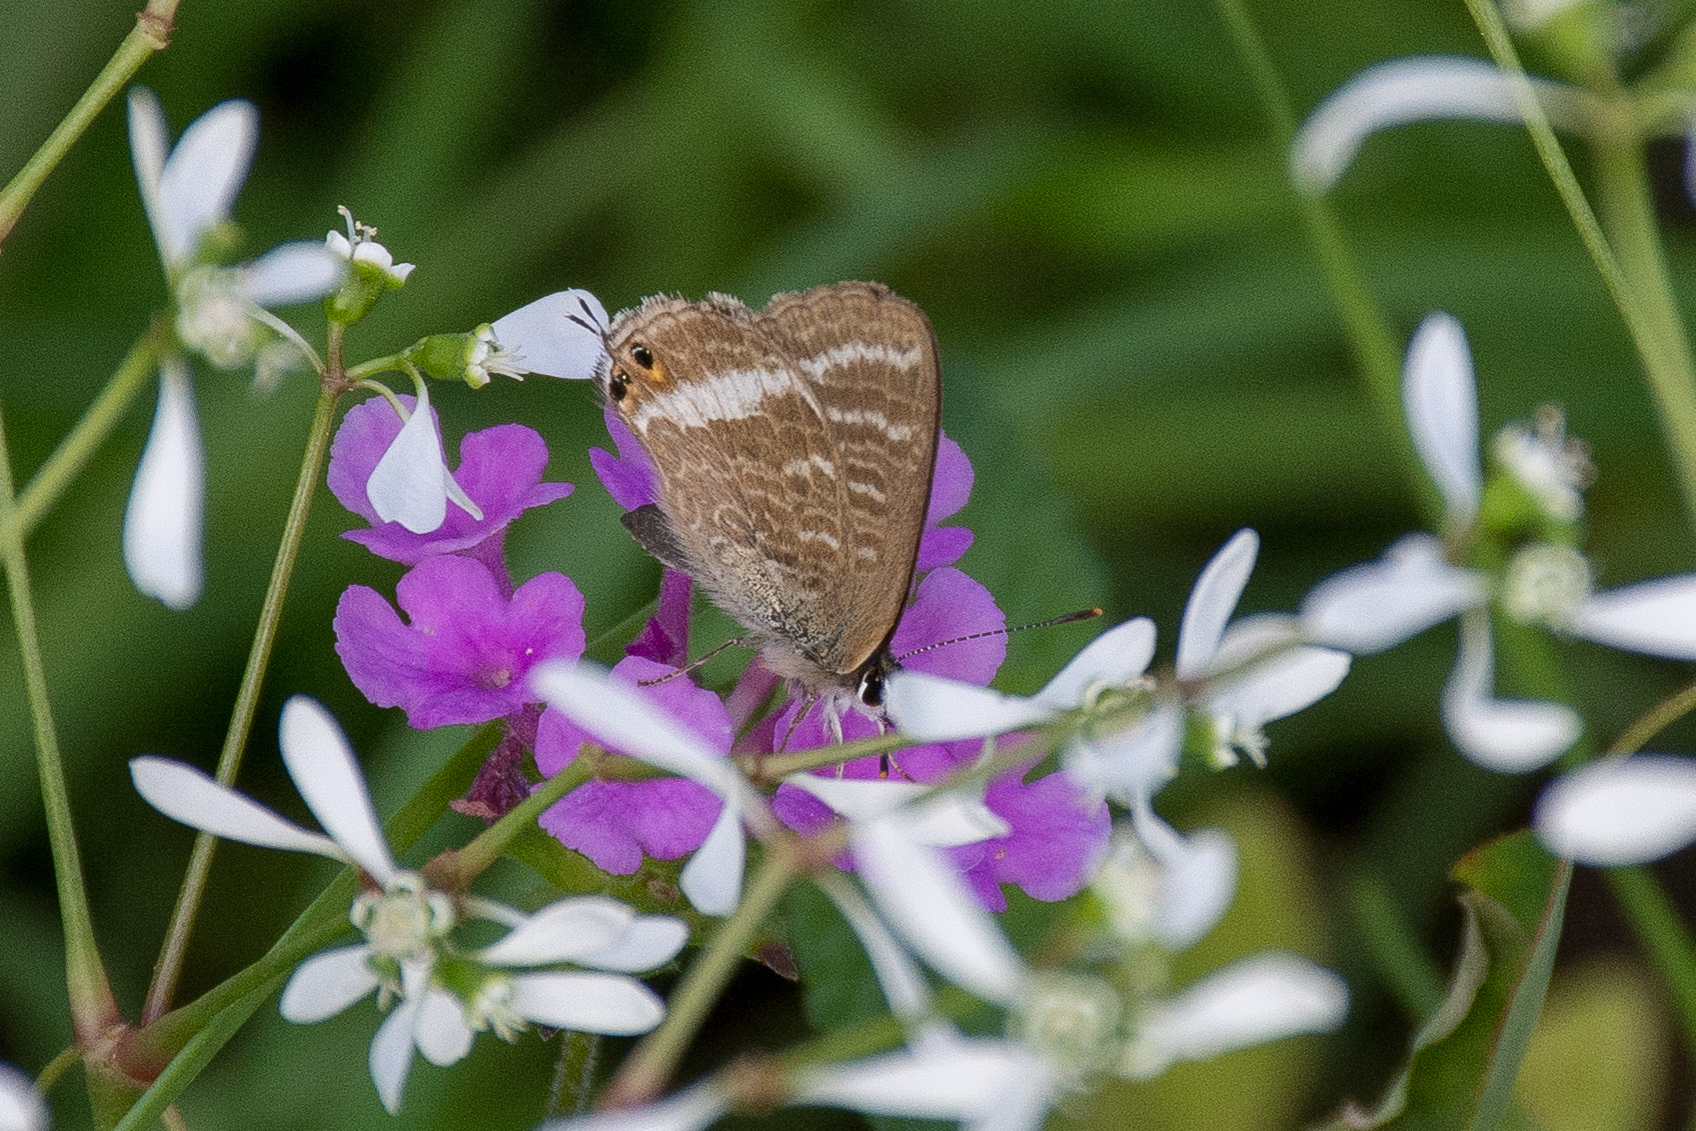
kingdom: Animalia
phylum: Arthropoda
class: Insecta
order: Lepidoptera
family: Lycaenidae
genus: Lampides
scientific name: Lampides boeticus
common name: Long-tailed blue
